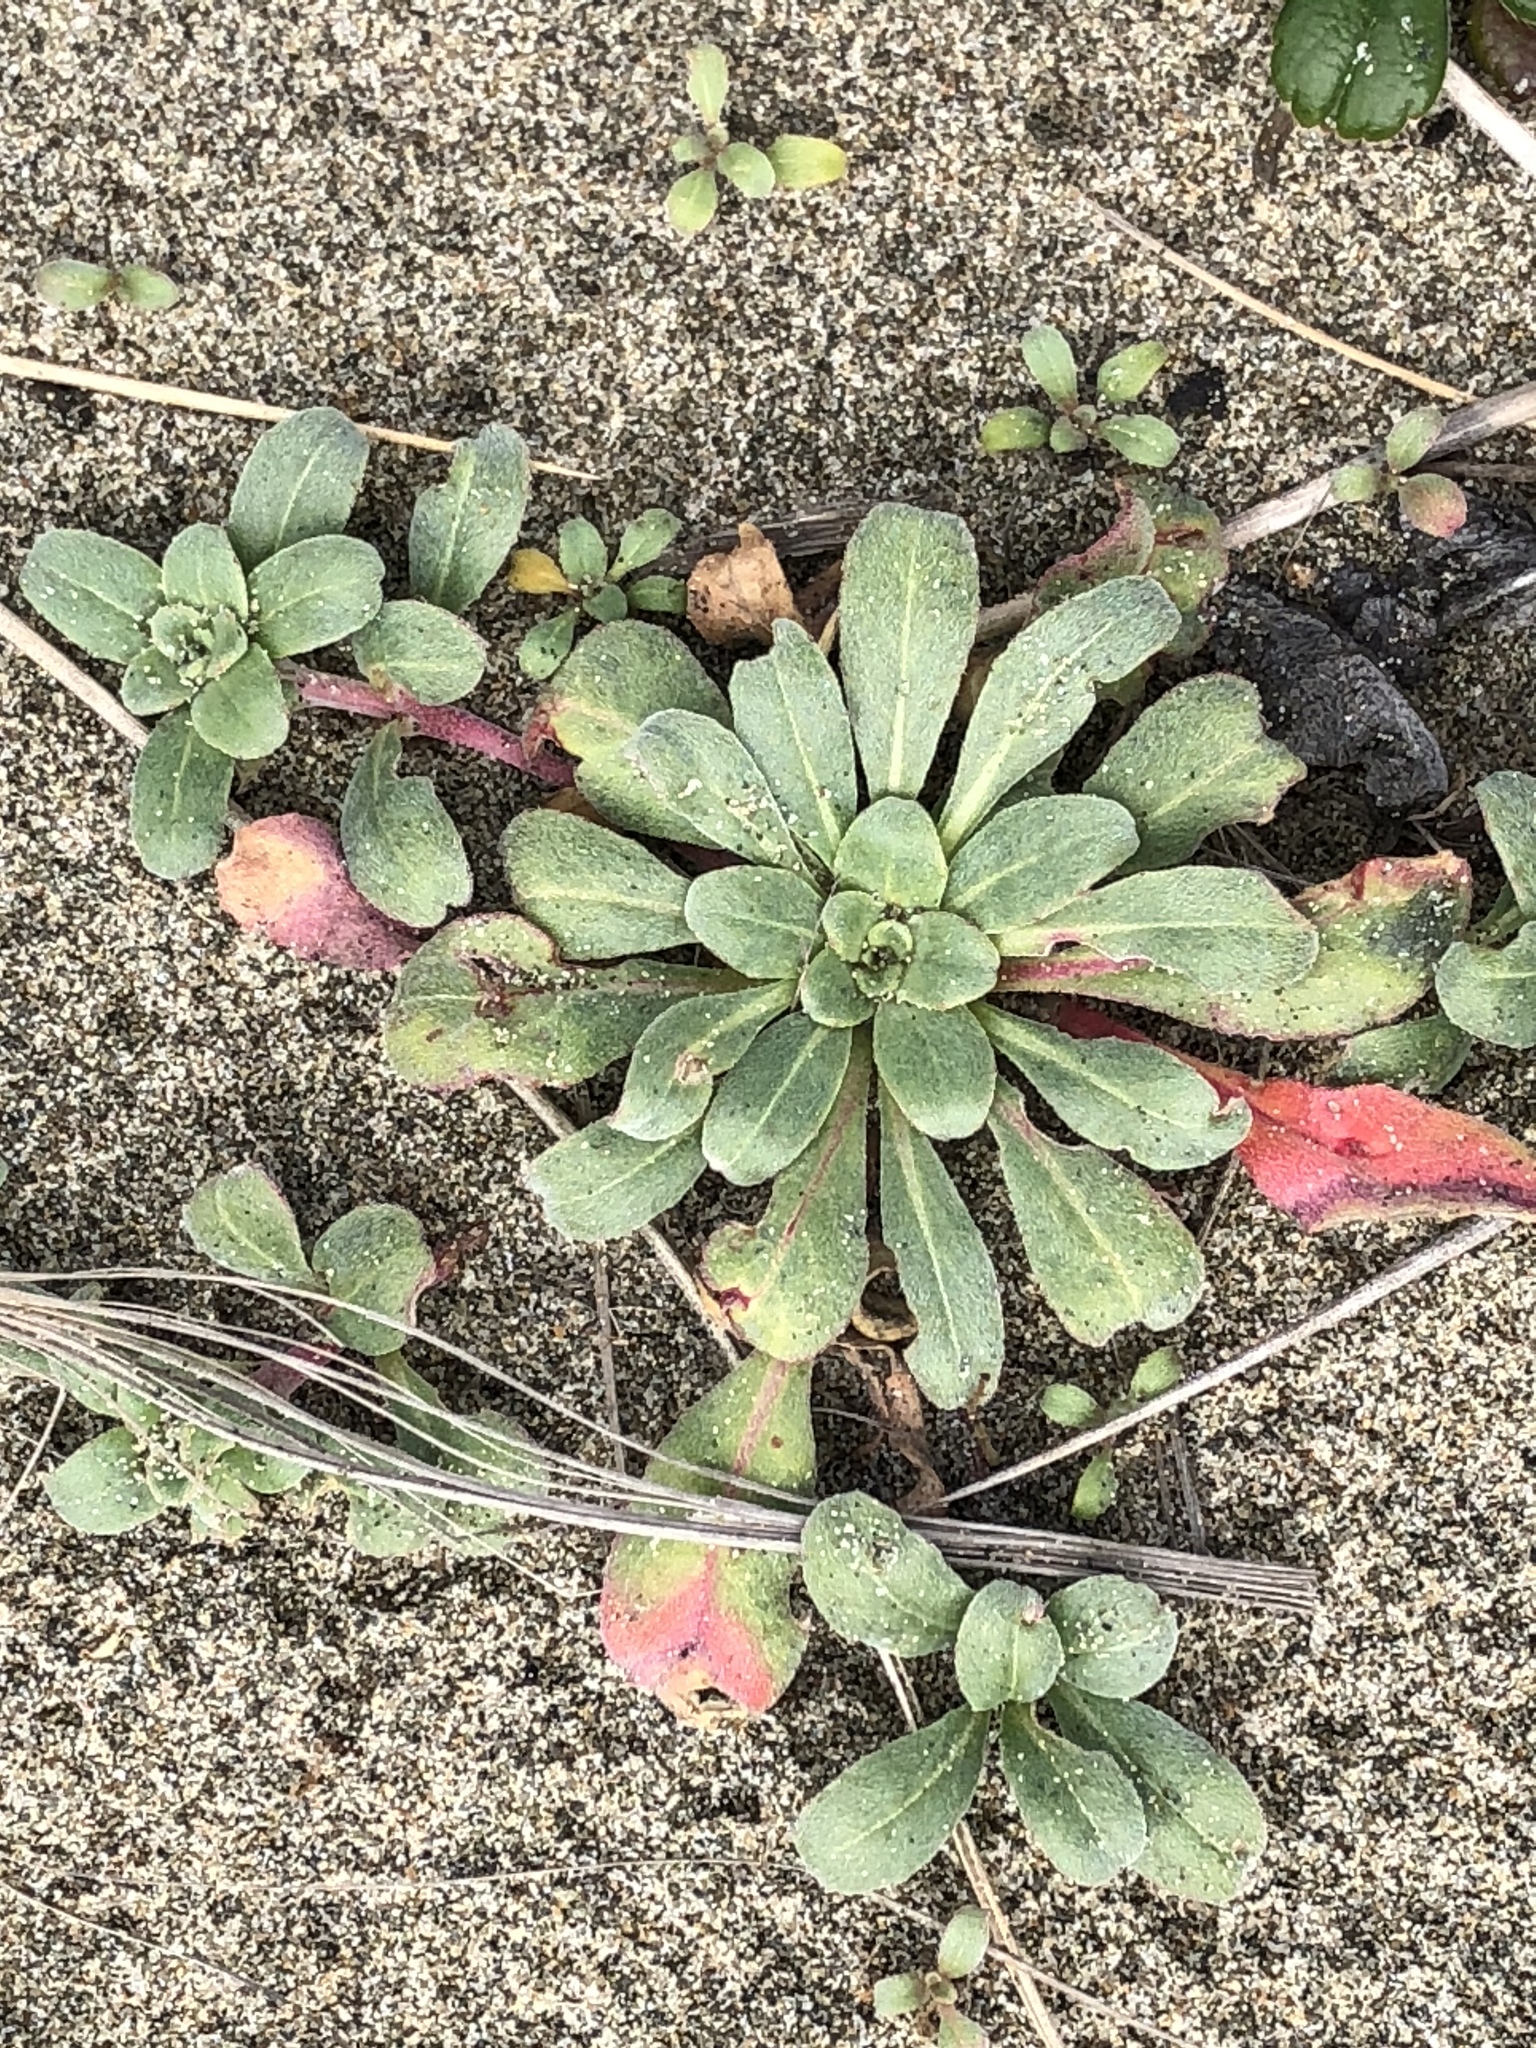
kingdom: Plantae
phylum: Tracheophyta
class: Magnoliopsida
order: Myrtales
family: Onagraceae
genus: Camissoniopsis
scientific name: Camissoniopsis cheiranthifolia
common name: Beach suncup
